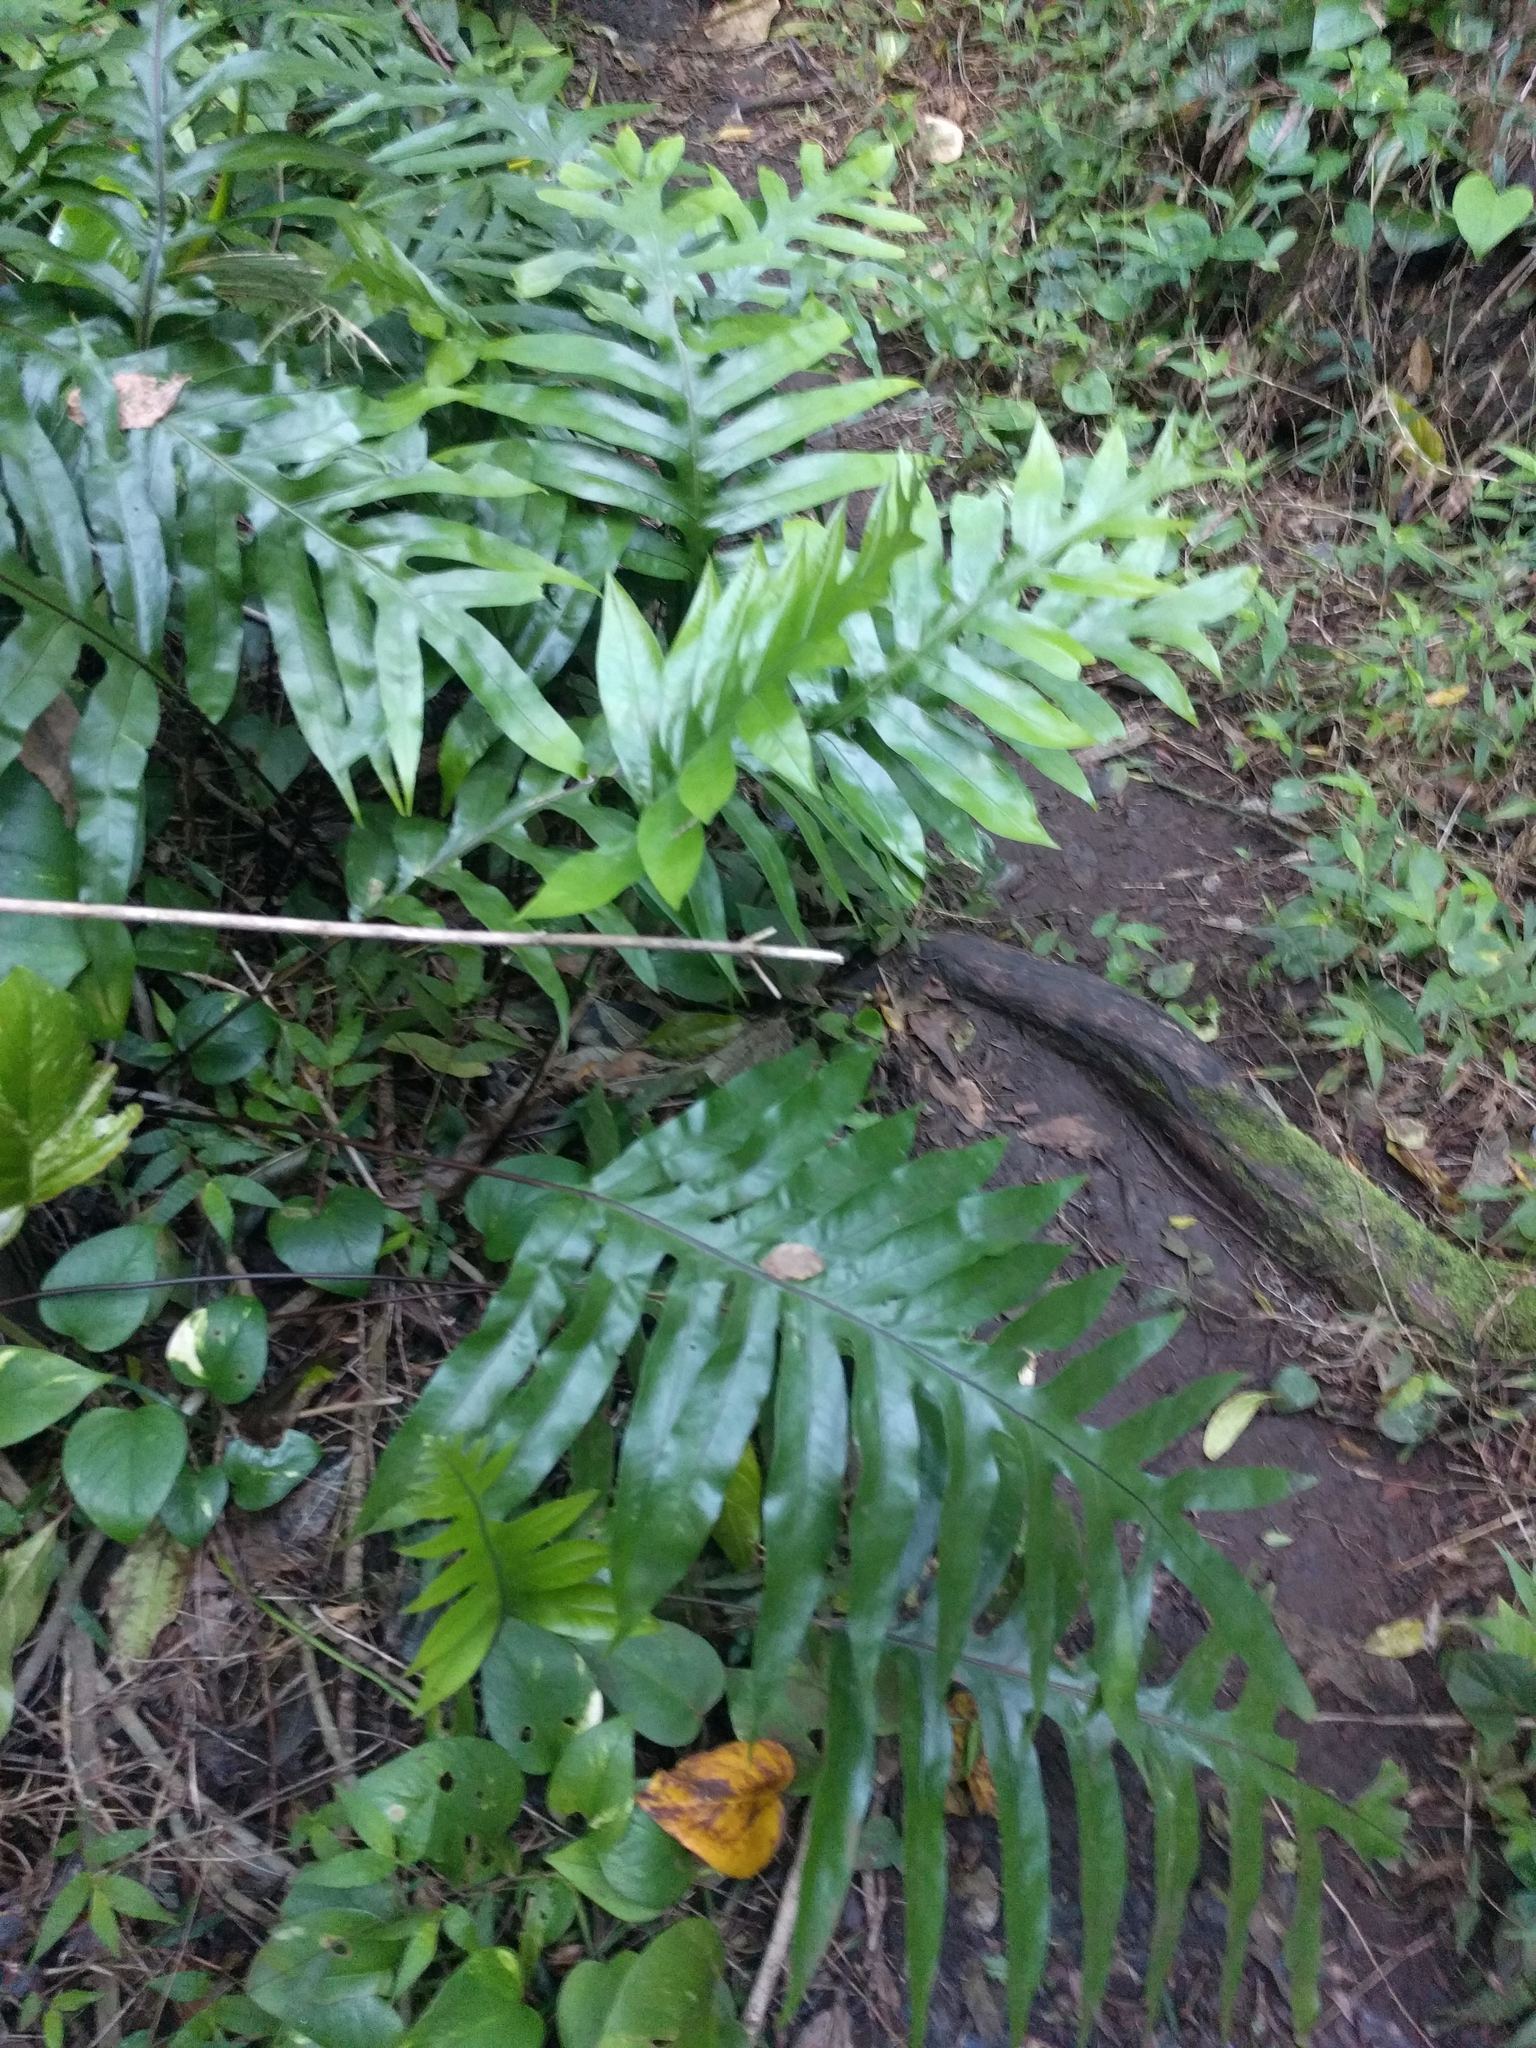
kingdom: Plantae
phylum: Tracheophyta
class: Polypodiopsida
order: Polypodiales
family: Polypodiaceae
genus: Microsorum
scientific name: Microsorum grossum
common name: Musk fern
